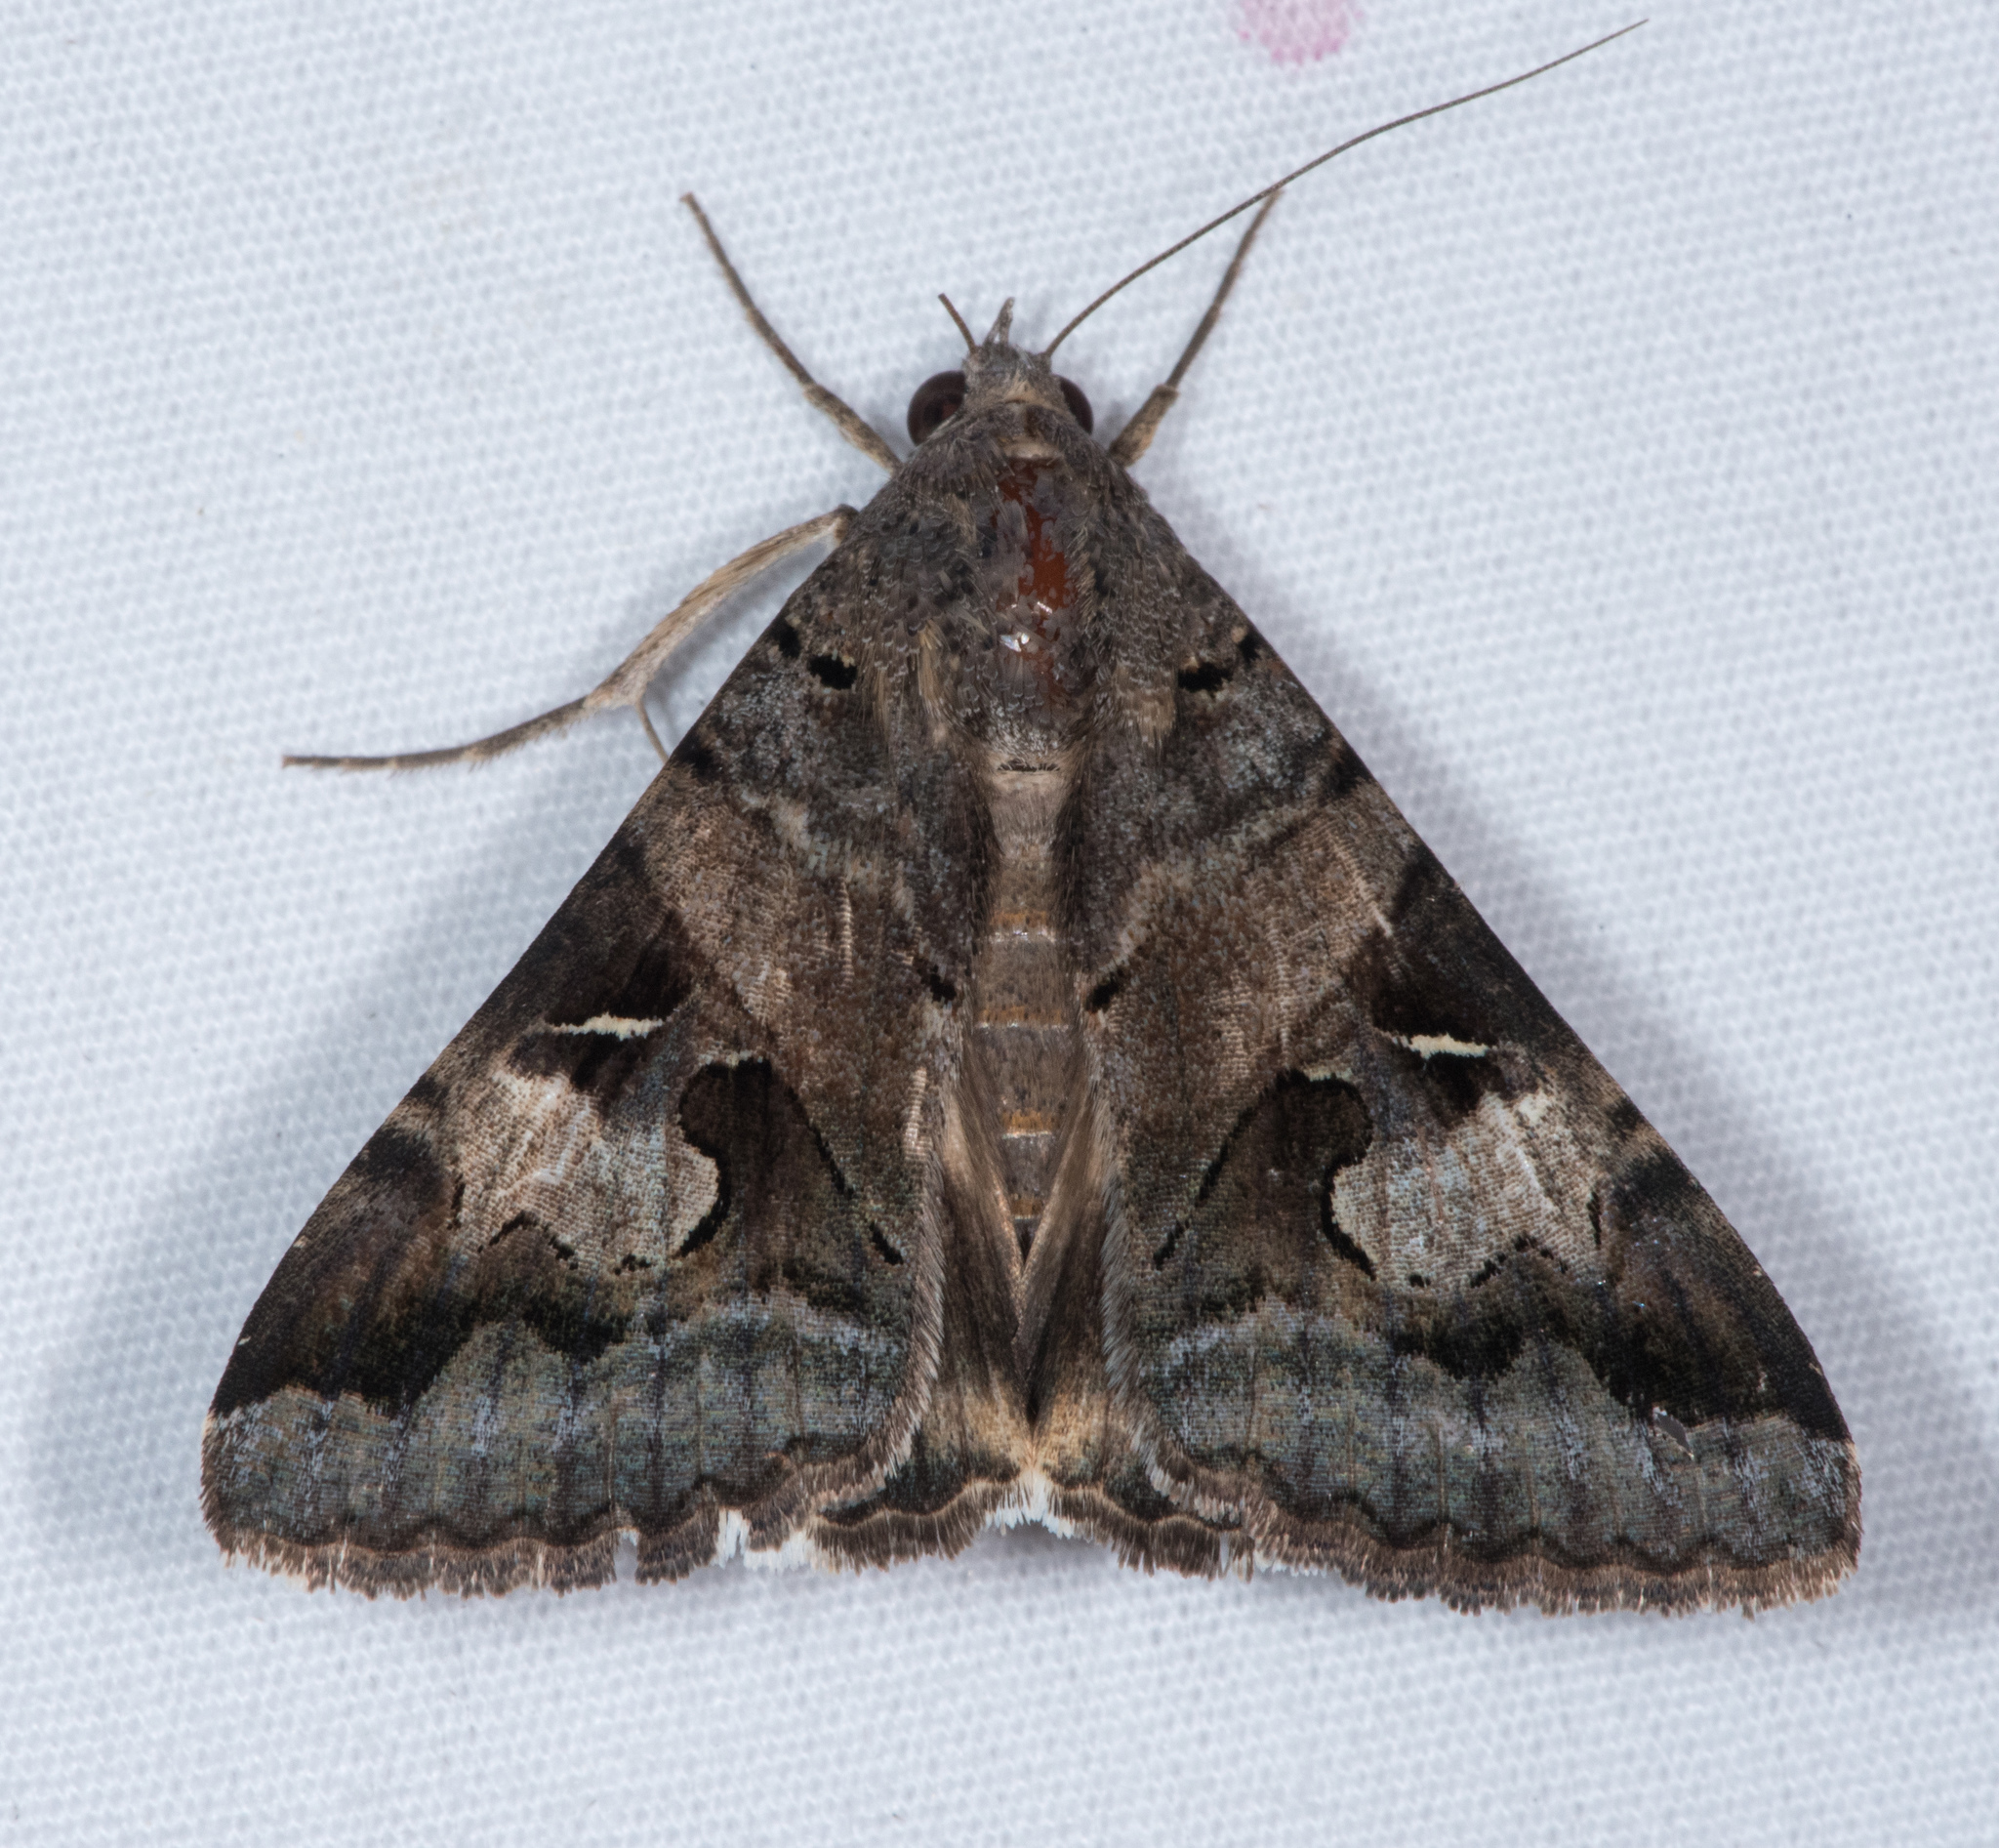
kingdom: Animalia
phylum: Arthropoda
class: Insecta
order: Lepidoptera
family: Erebidae
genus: Melipotis
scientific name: Melipotis indomita
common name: Moth
